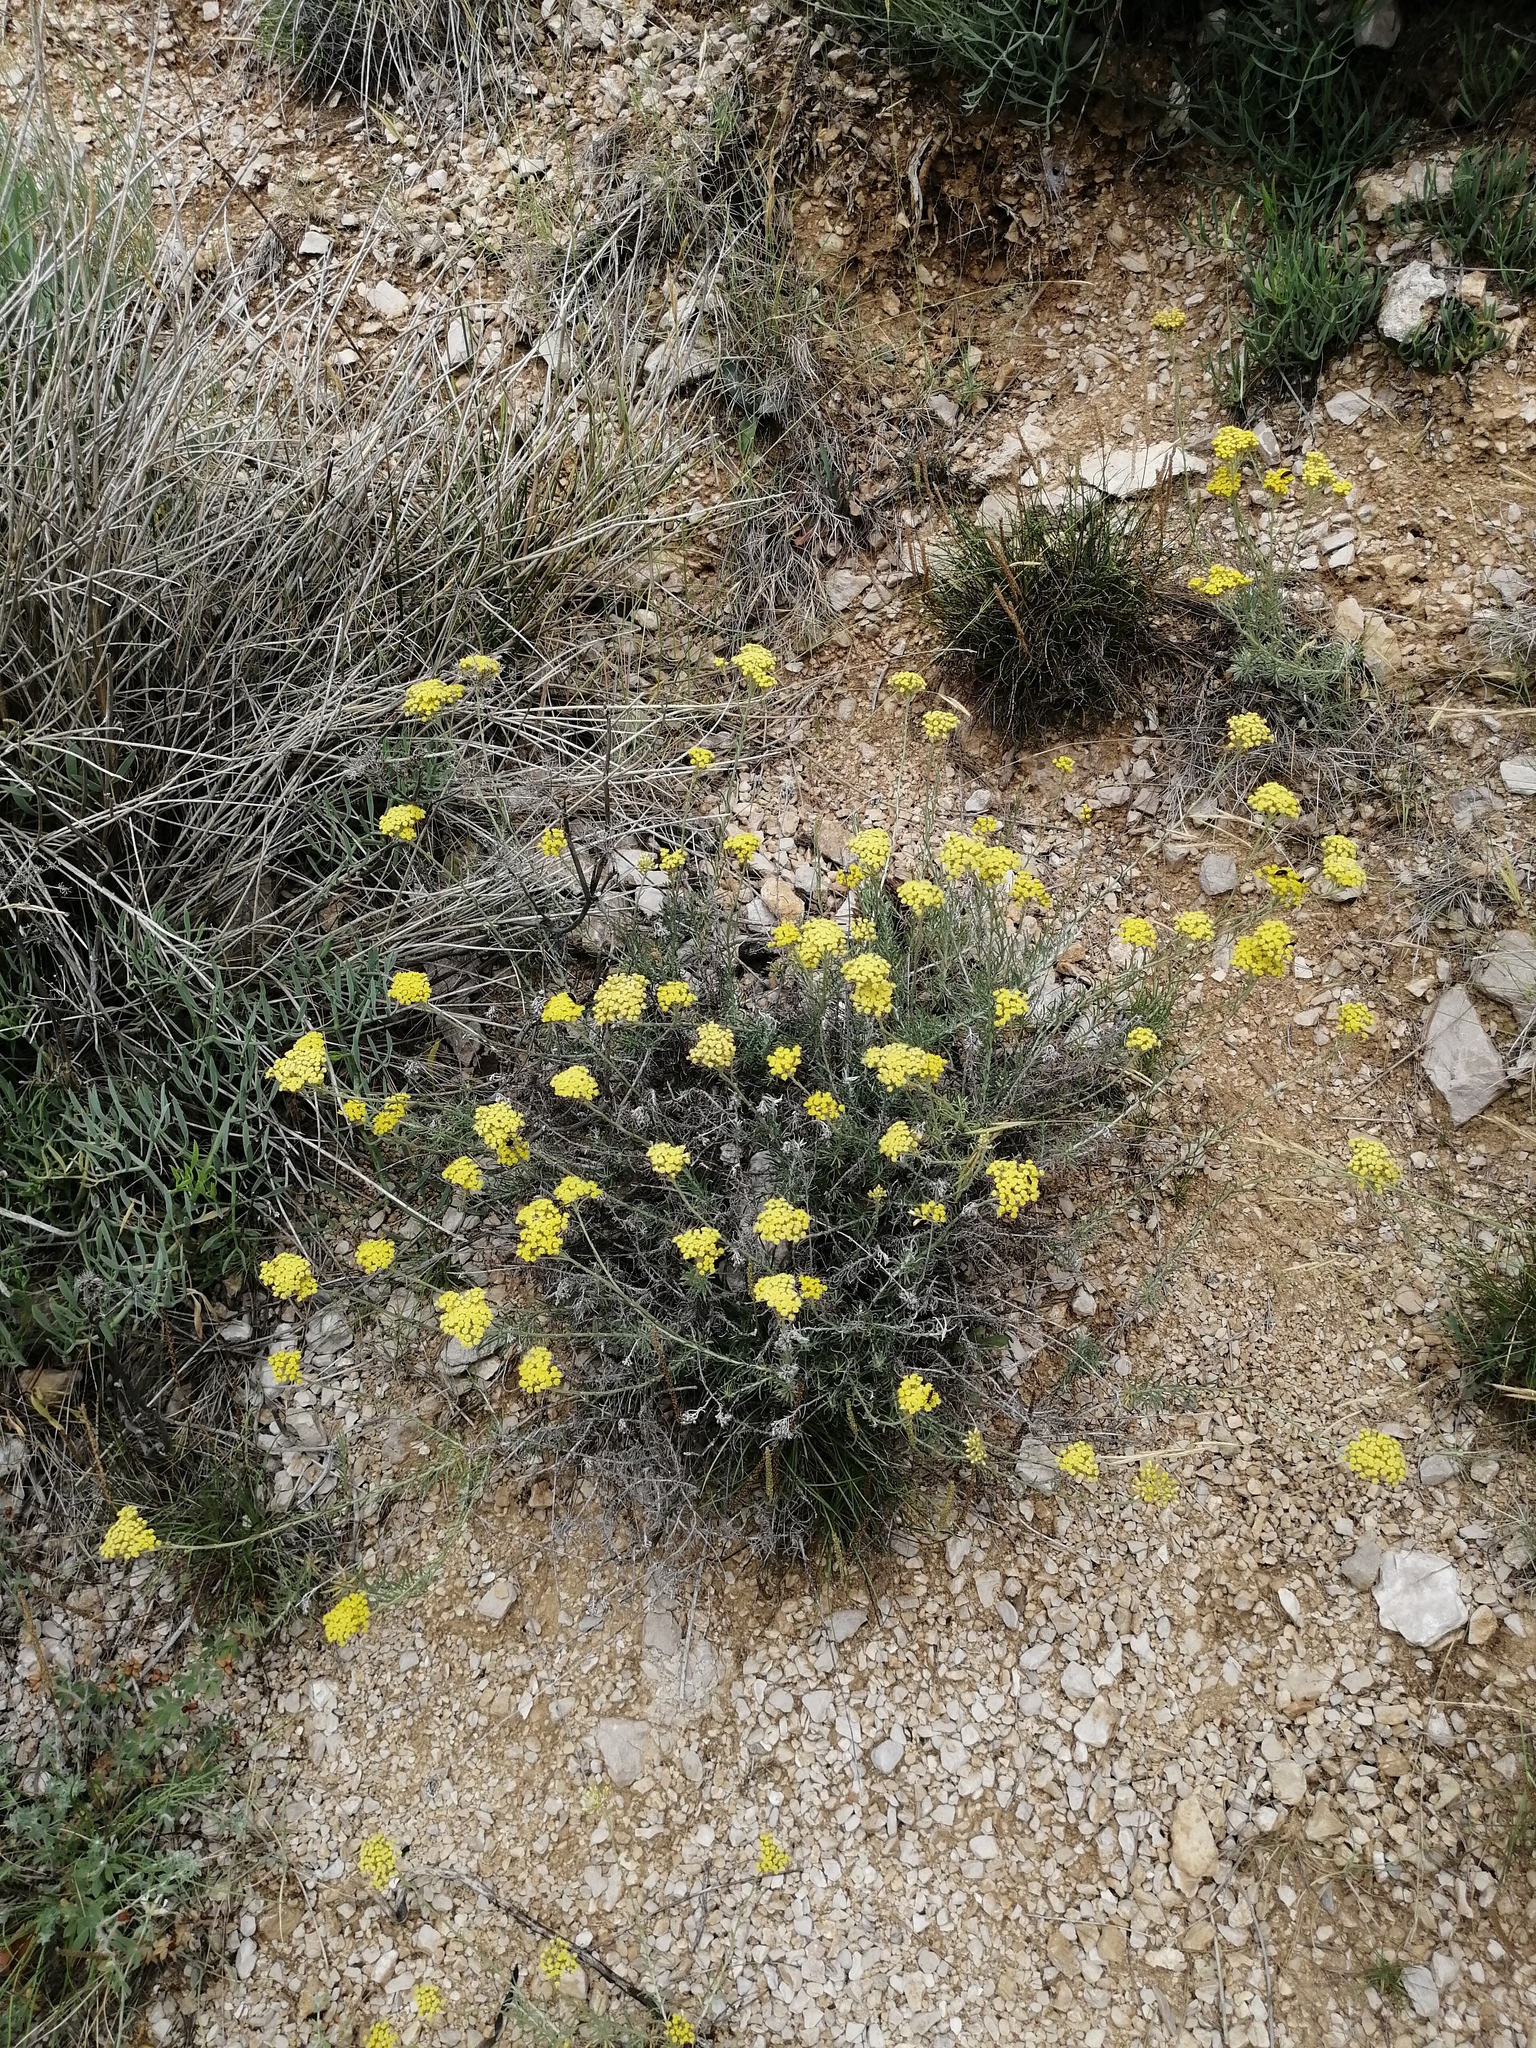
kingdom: Plantae
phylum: Tracheophyta
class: Magnoliopsida
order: Asterales
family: Asteraceae
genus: Helichrysum
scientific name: Helichrysum italicum
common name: Curryplant
